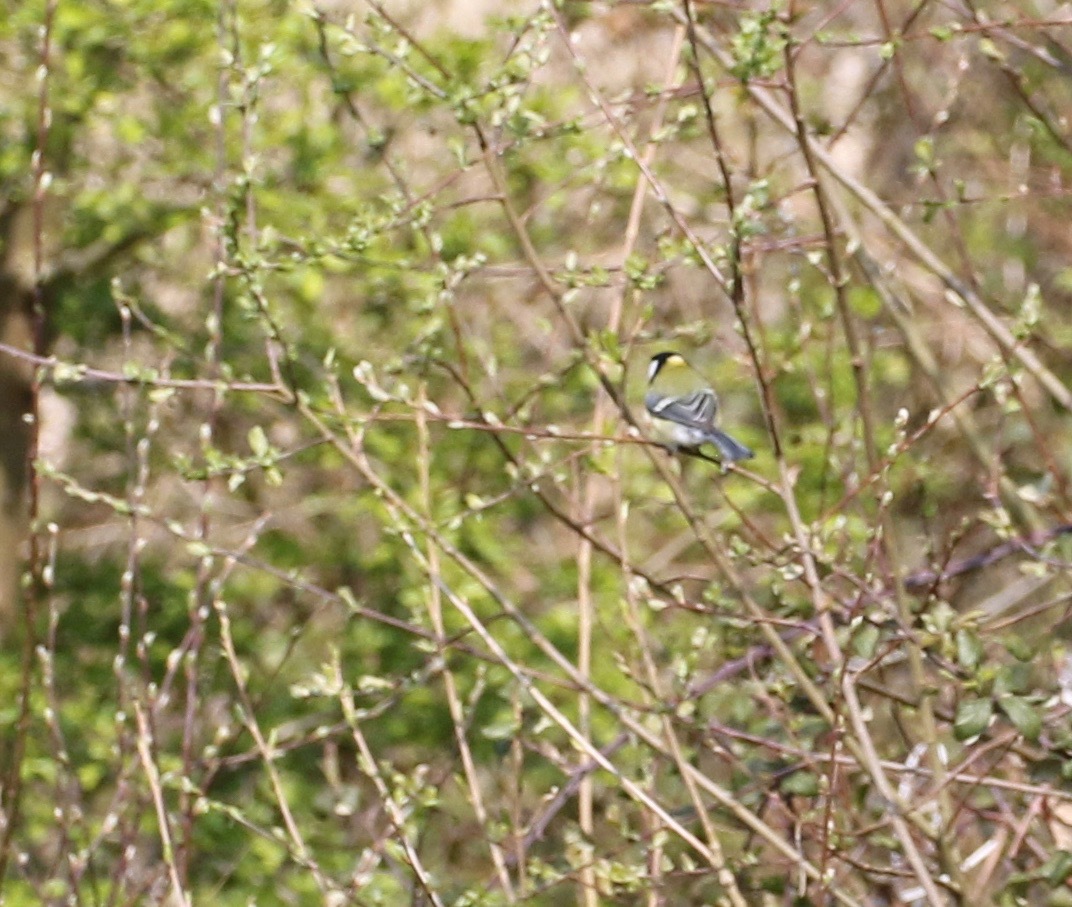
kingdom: Animalia
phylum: Chordata
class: Aves
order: Passeriformes
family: Paridae
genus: Parus
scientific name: Parus major
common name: Great tit
